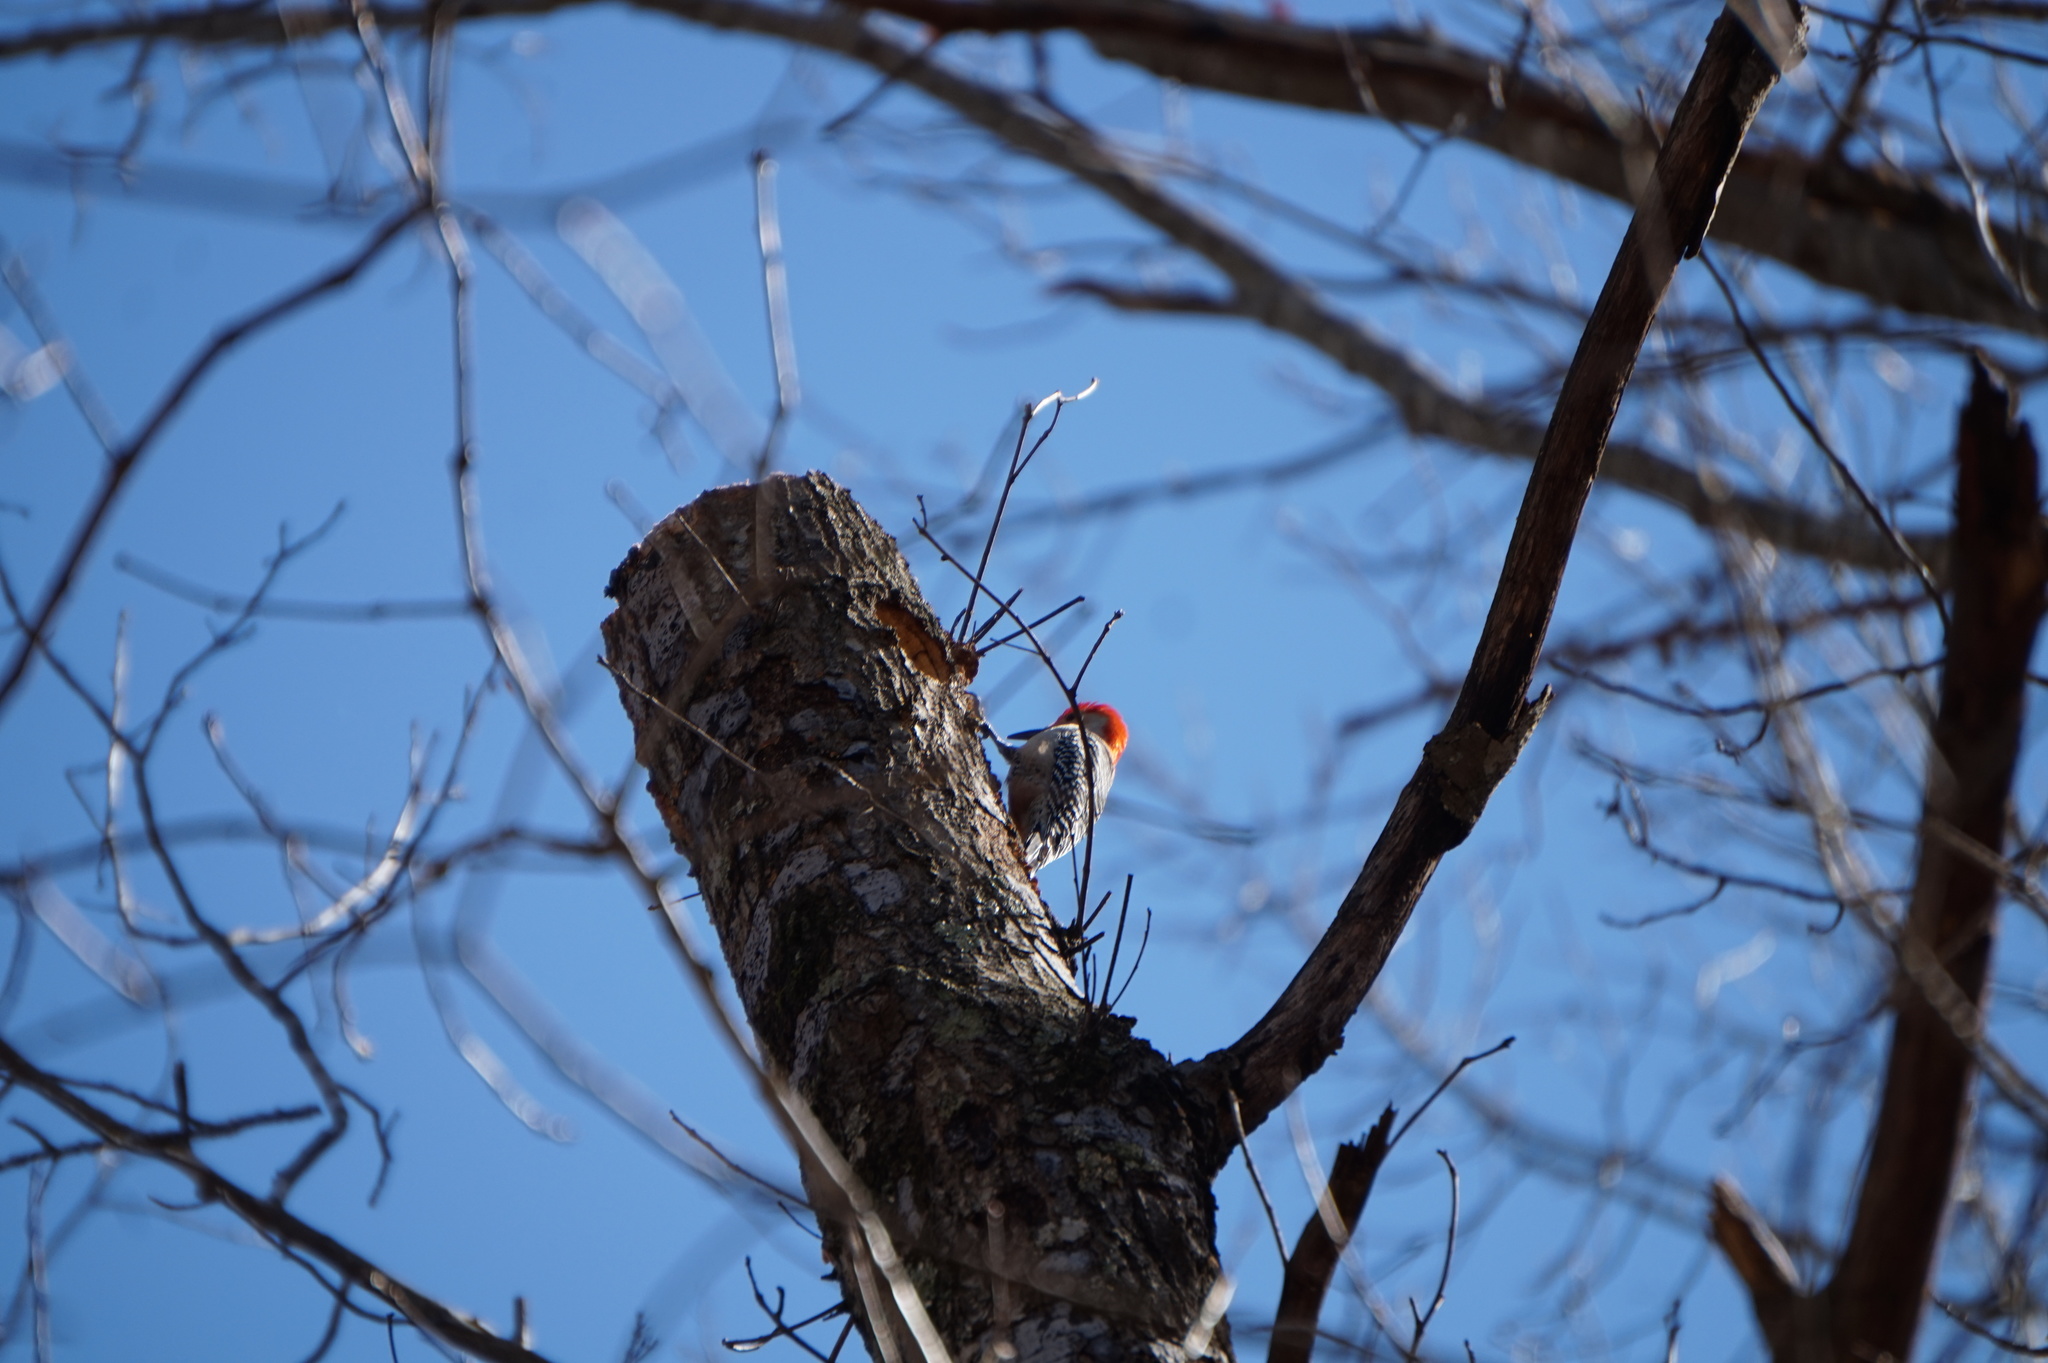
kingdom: Animalia
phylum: Chordata
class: Aves
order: Piciformes
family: Picidae
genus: Melanerpes
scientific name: Melanerpes carolinus
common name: Red-bellied woodpecker
